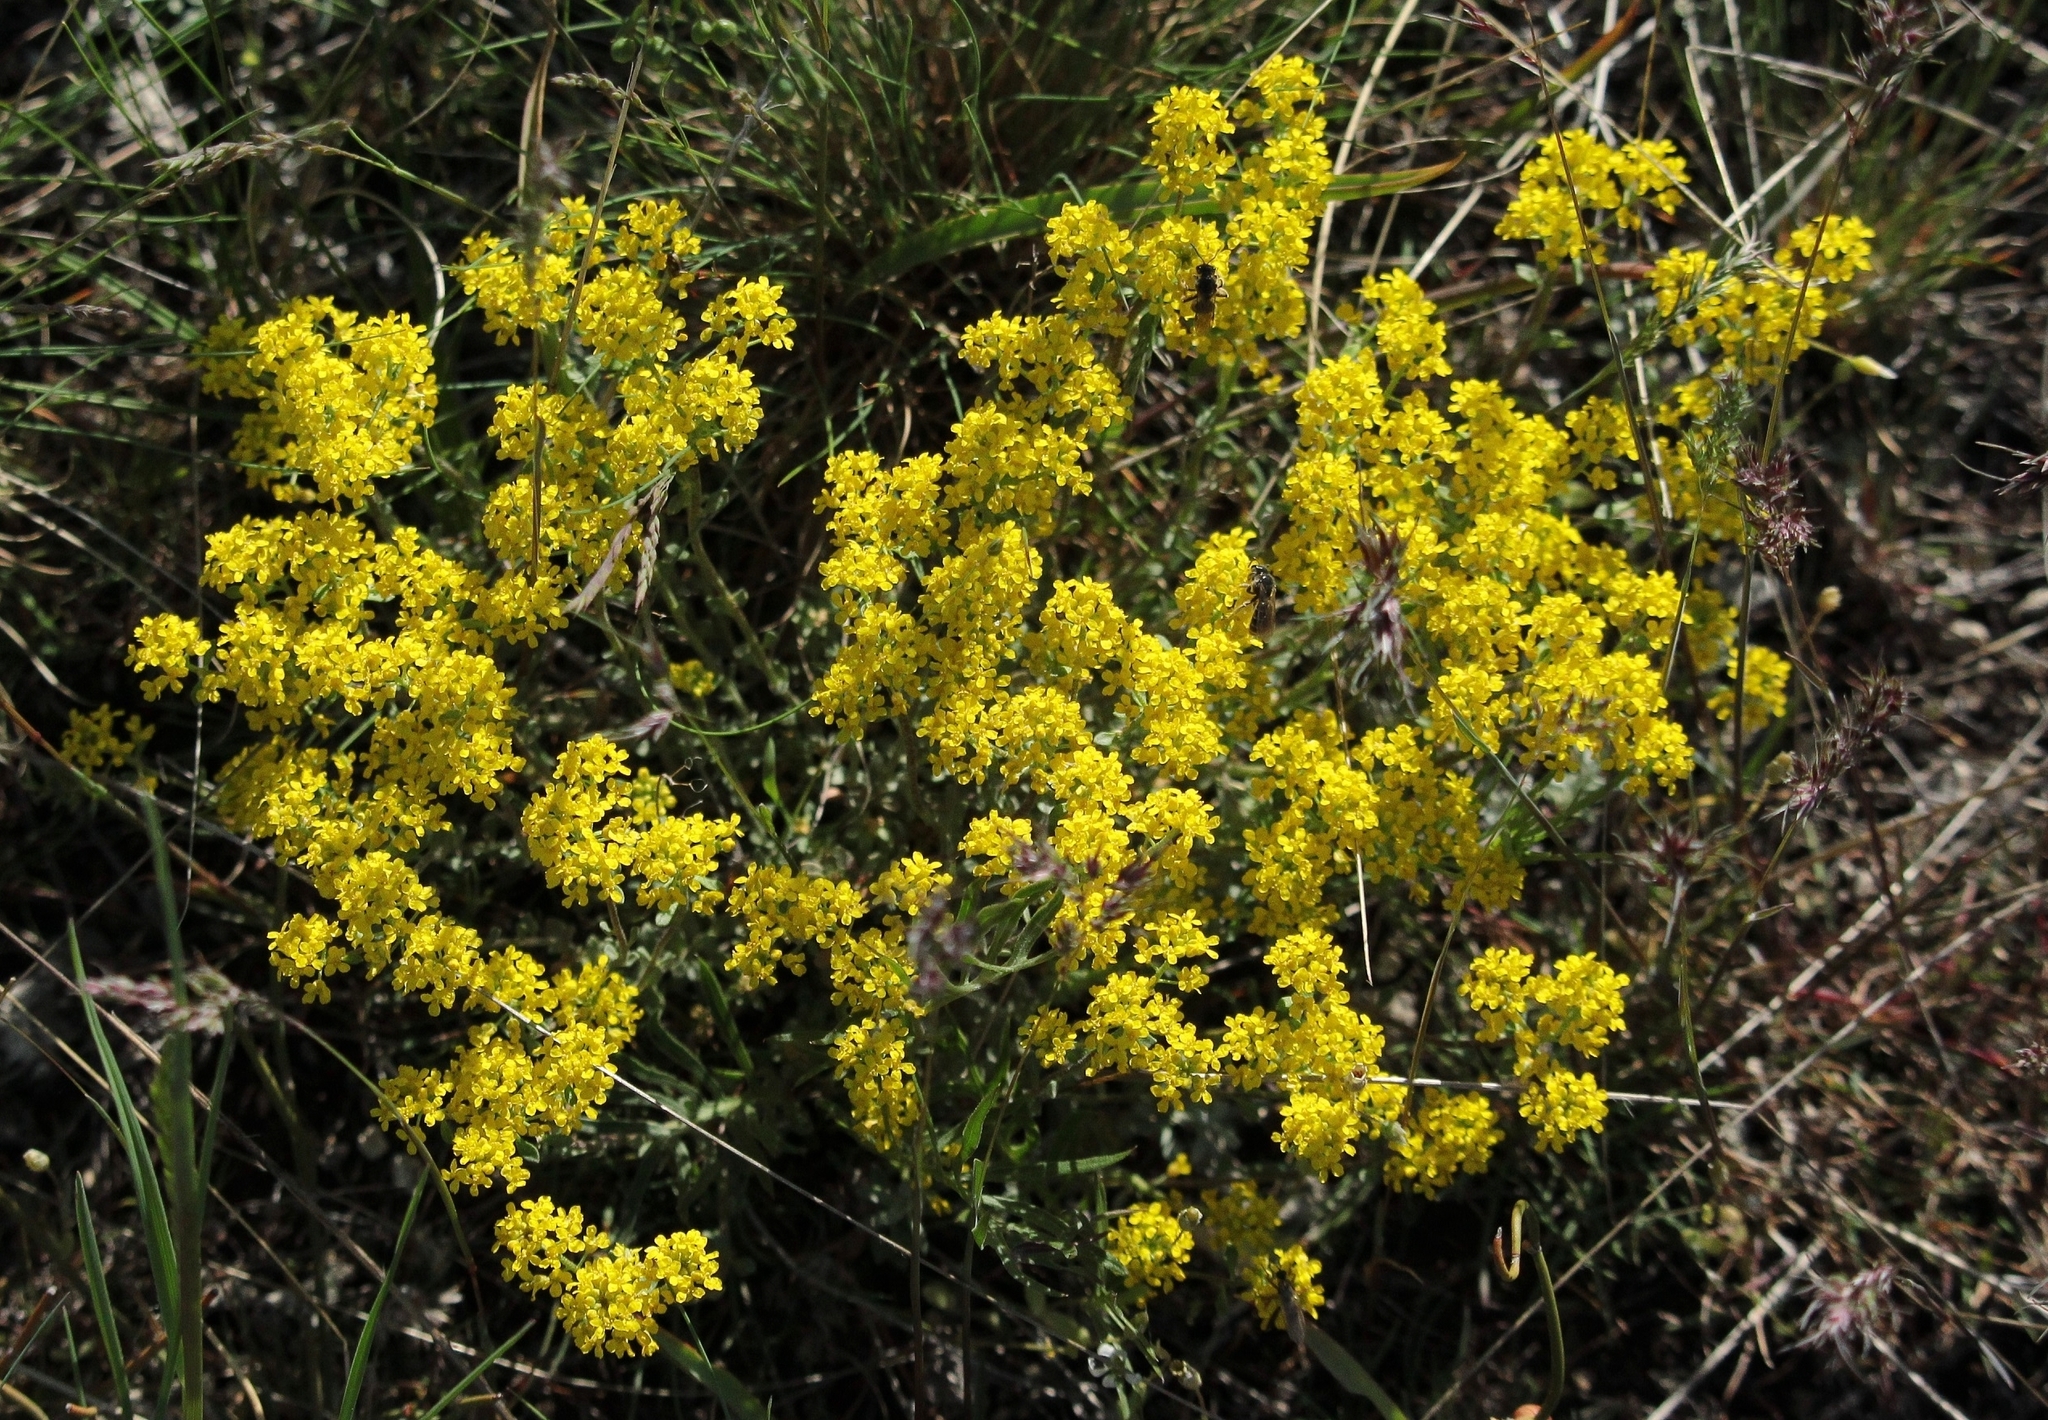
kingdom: Plantae
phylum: Tracheophyta
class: Magnoliopsida
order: Brassicales
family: Brassicaceae
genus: Odontarrhena
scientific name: Odontarrhena tortuosa
